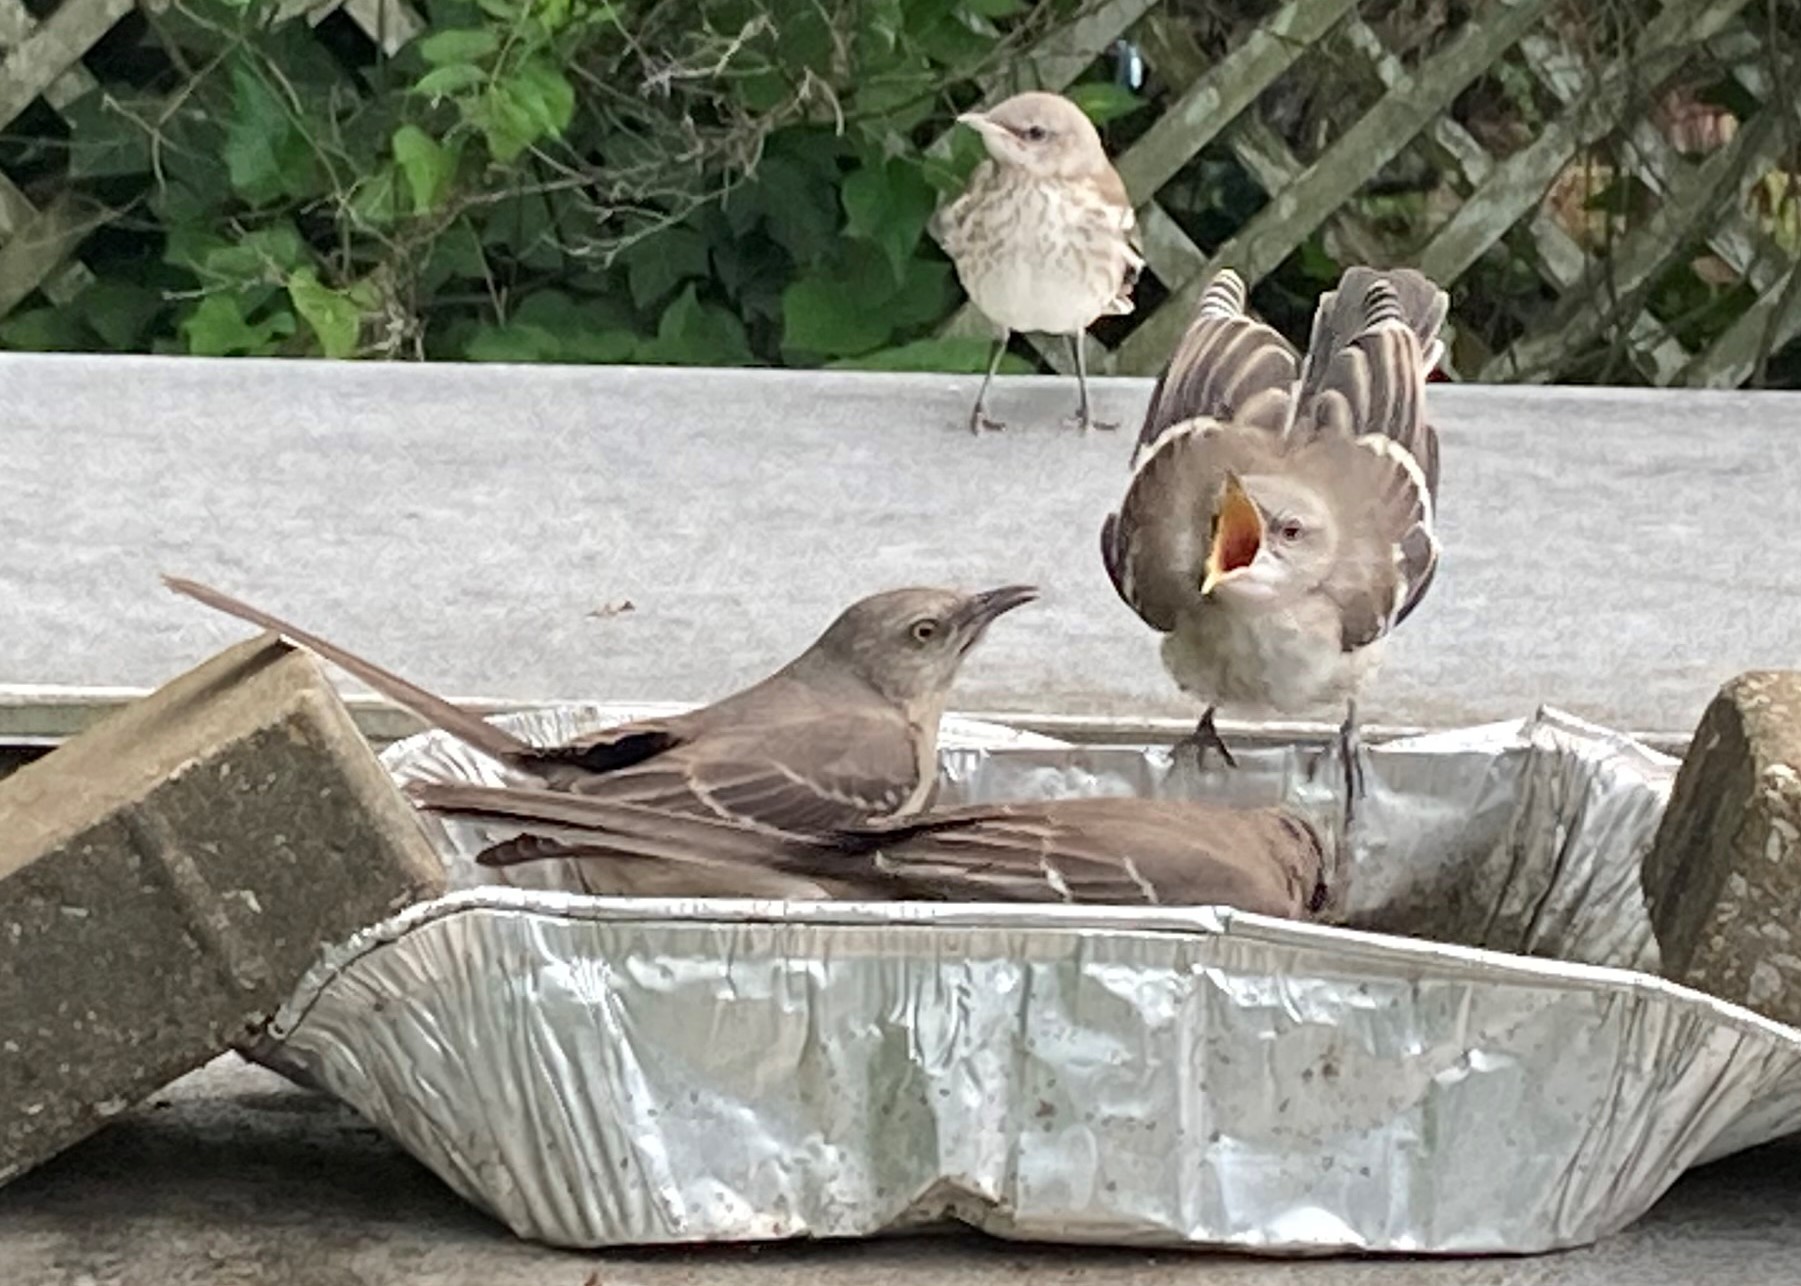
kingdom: Animalia
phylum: Chordata
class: Aves
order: Passeriformes
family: Mimidae
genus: Mimus
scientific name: Mimus polyglottos
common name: Northern mockingbird
